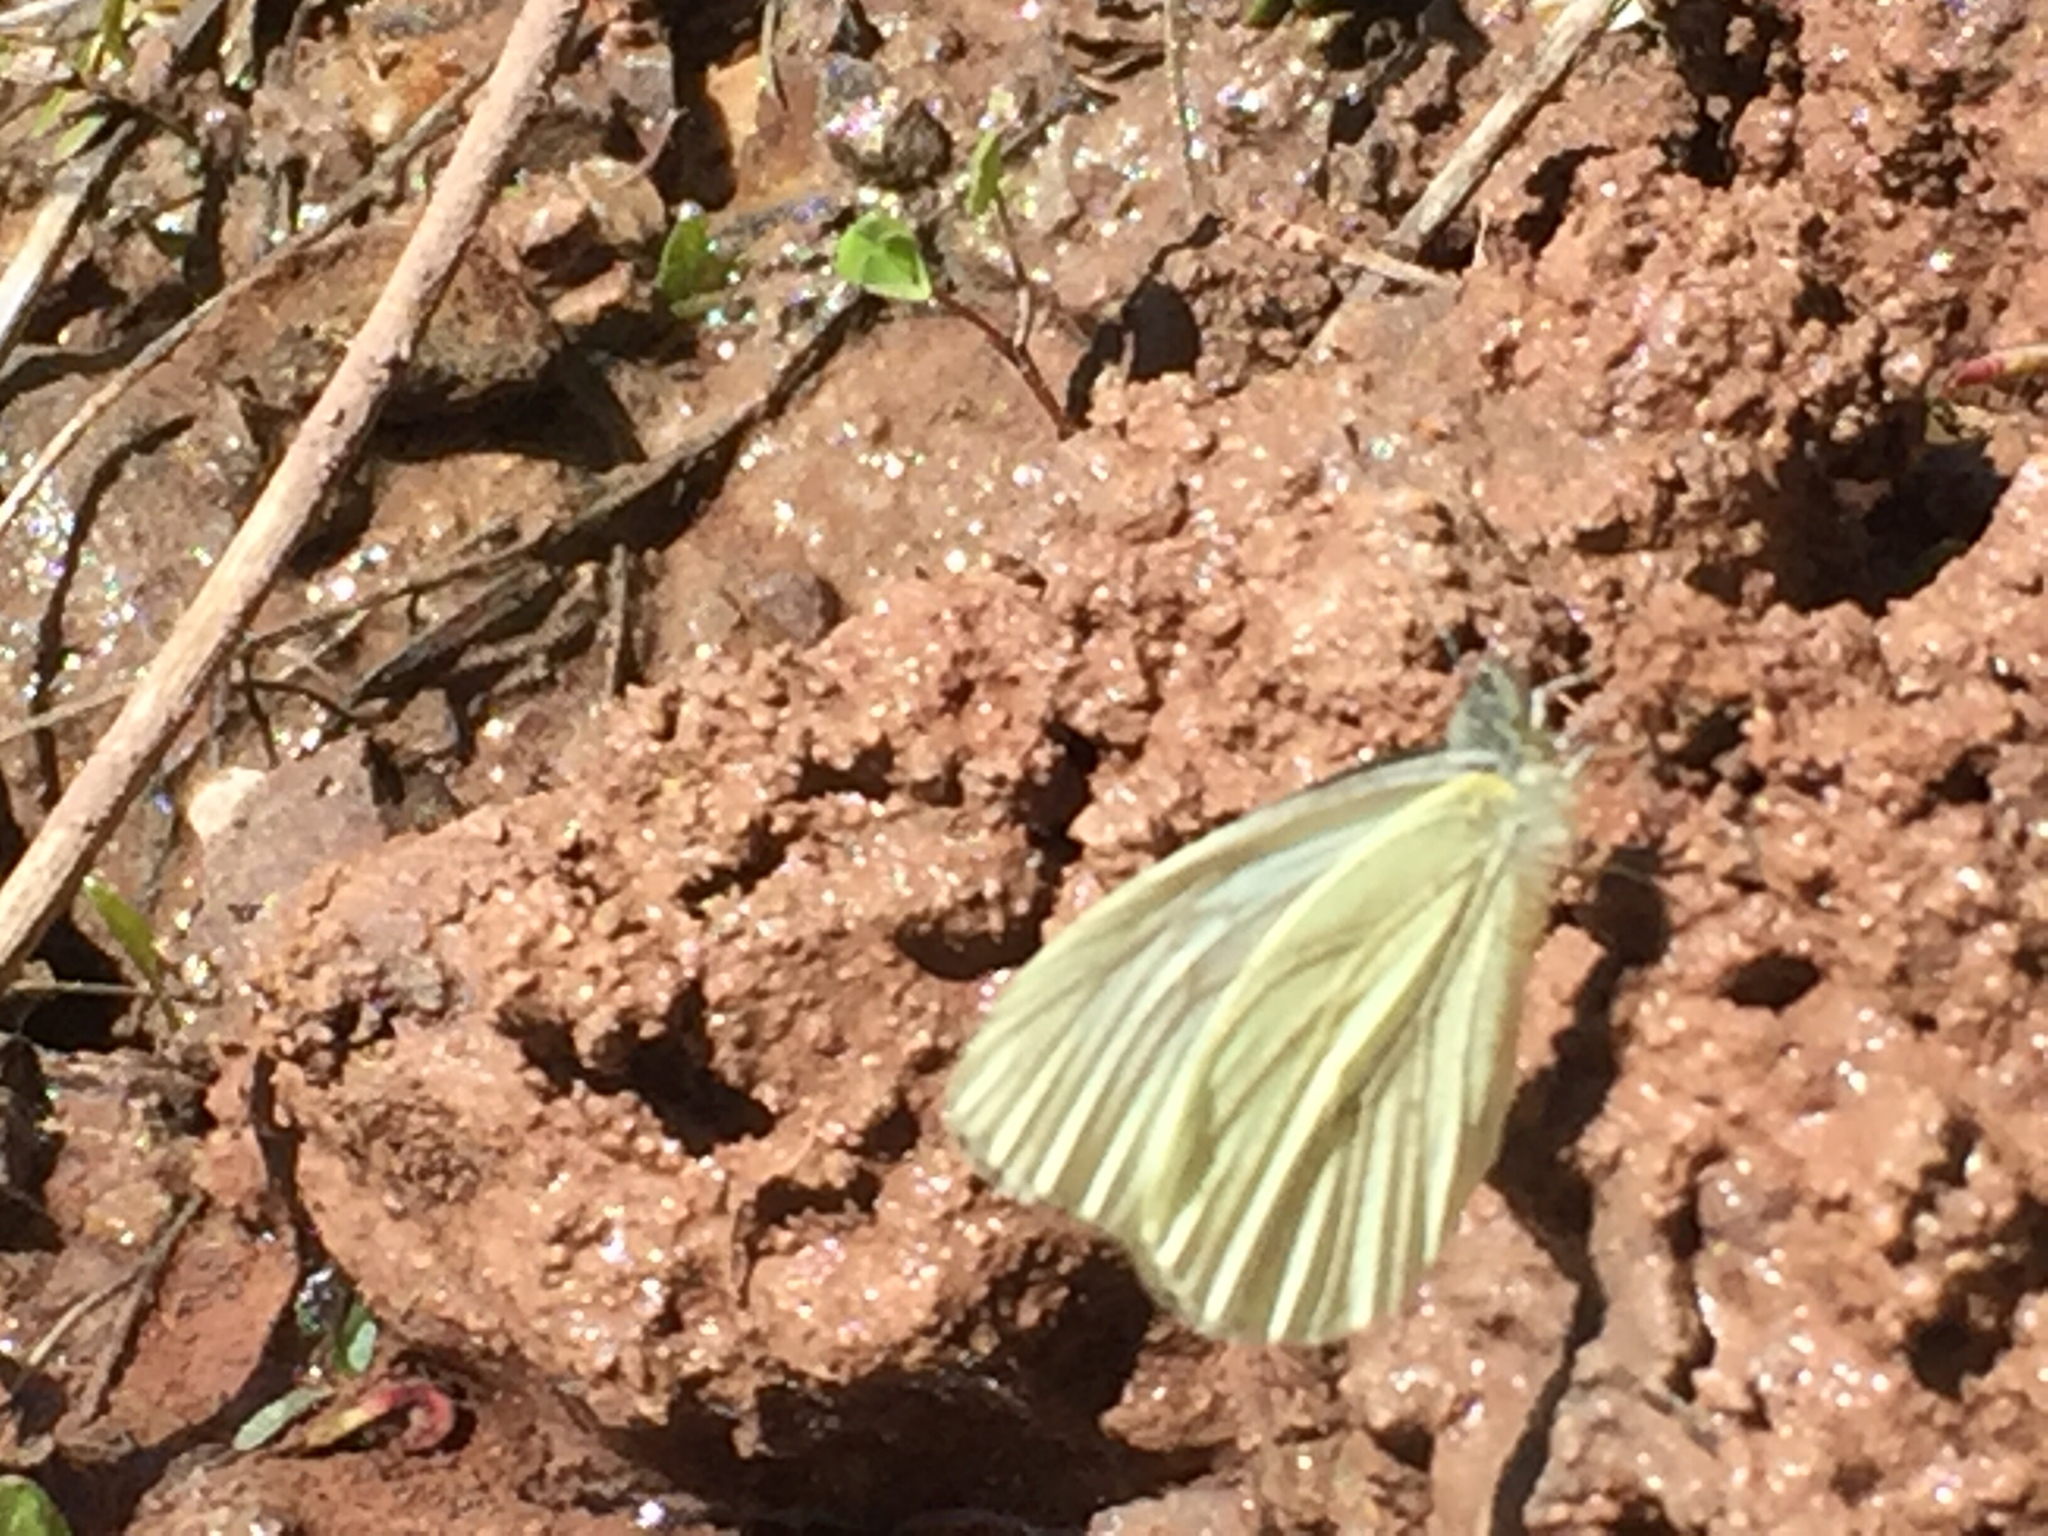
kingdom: Animalia
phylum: Arthropoda
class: Insecta
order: Lepidoptera
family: Pieridae
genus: Pieris
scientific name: Pieris marginalis
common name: Margined white
